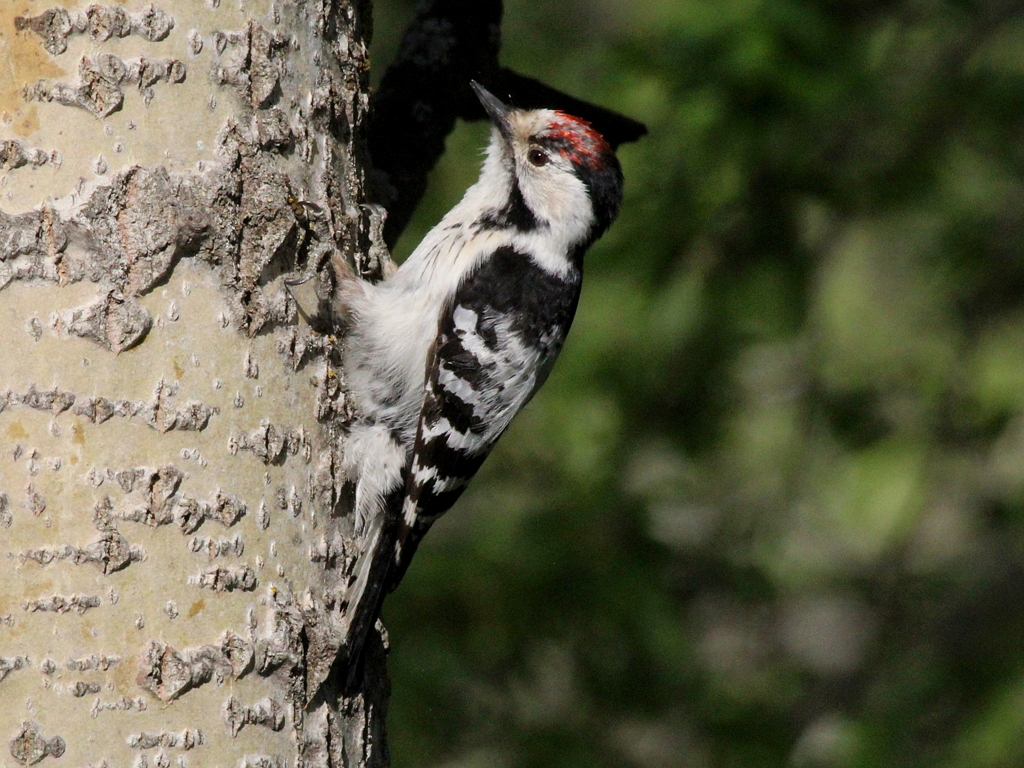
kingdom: Animalia
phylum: Chordata
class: Aves
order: Piciformes
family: Picidae
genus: Dryobates
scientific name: Dryobates minor
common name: Lesser spotted woodpecker
